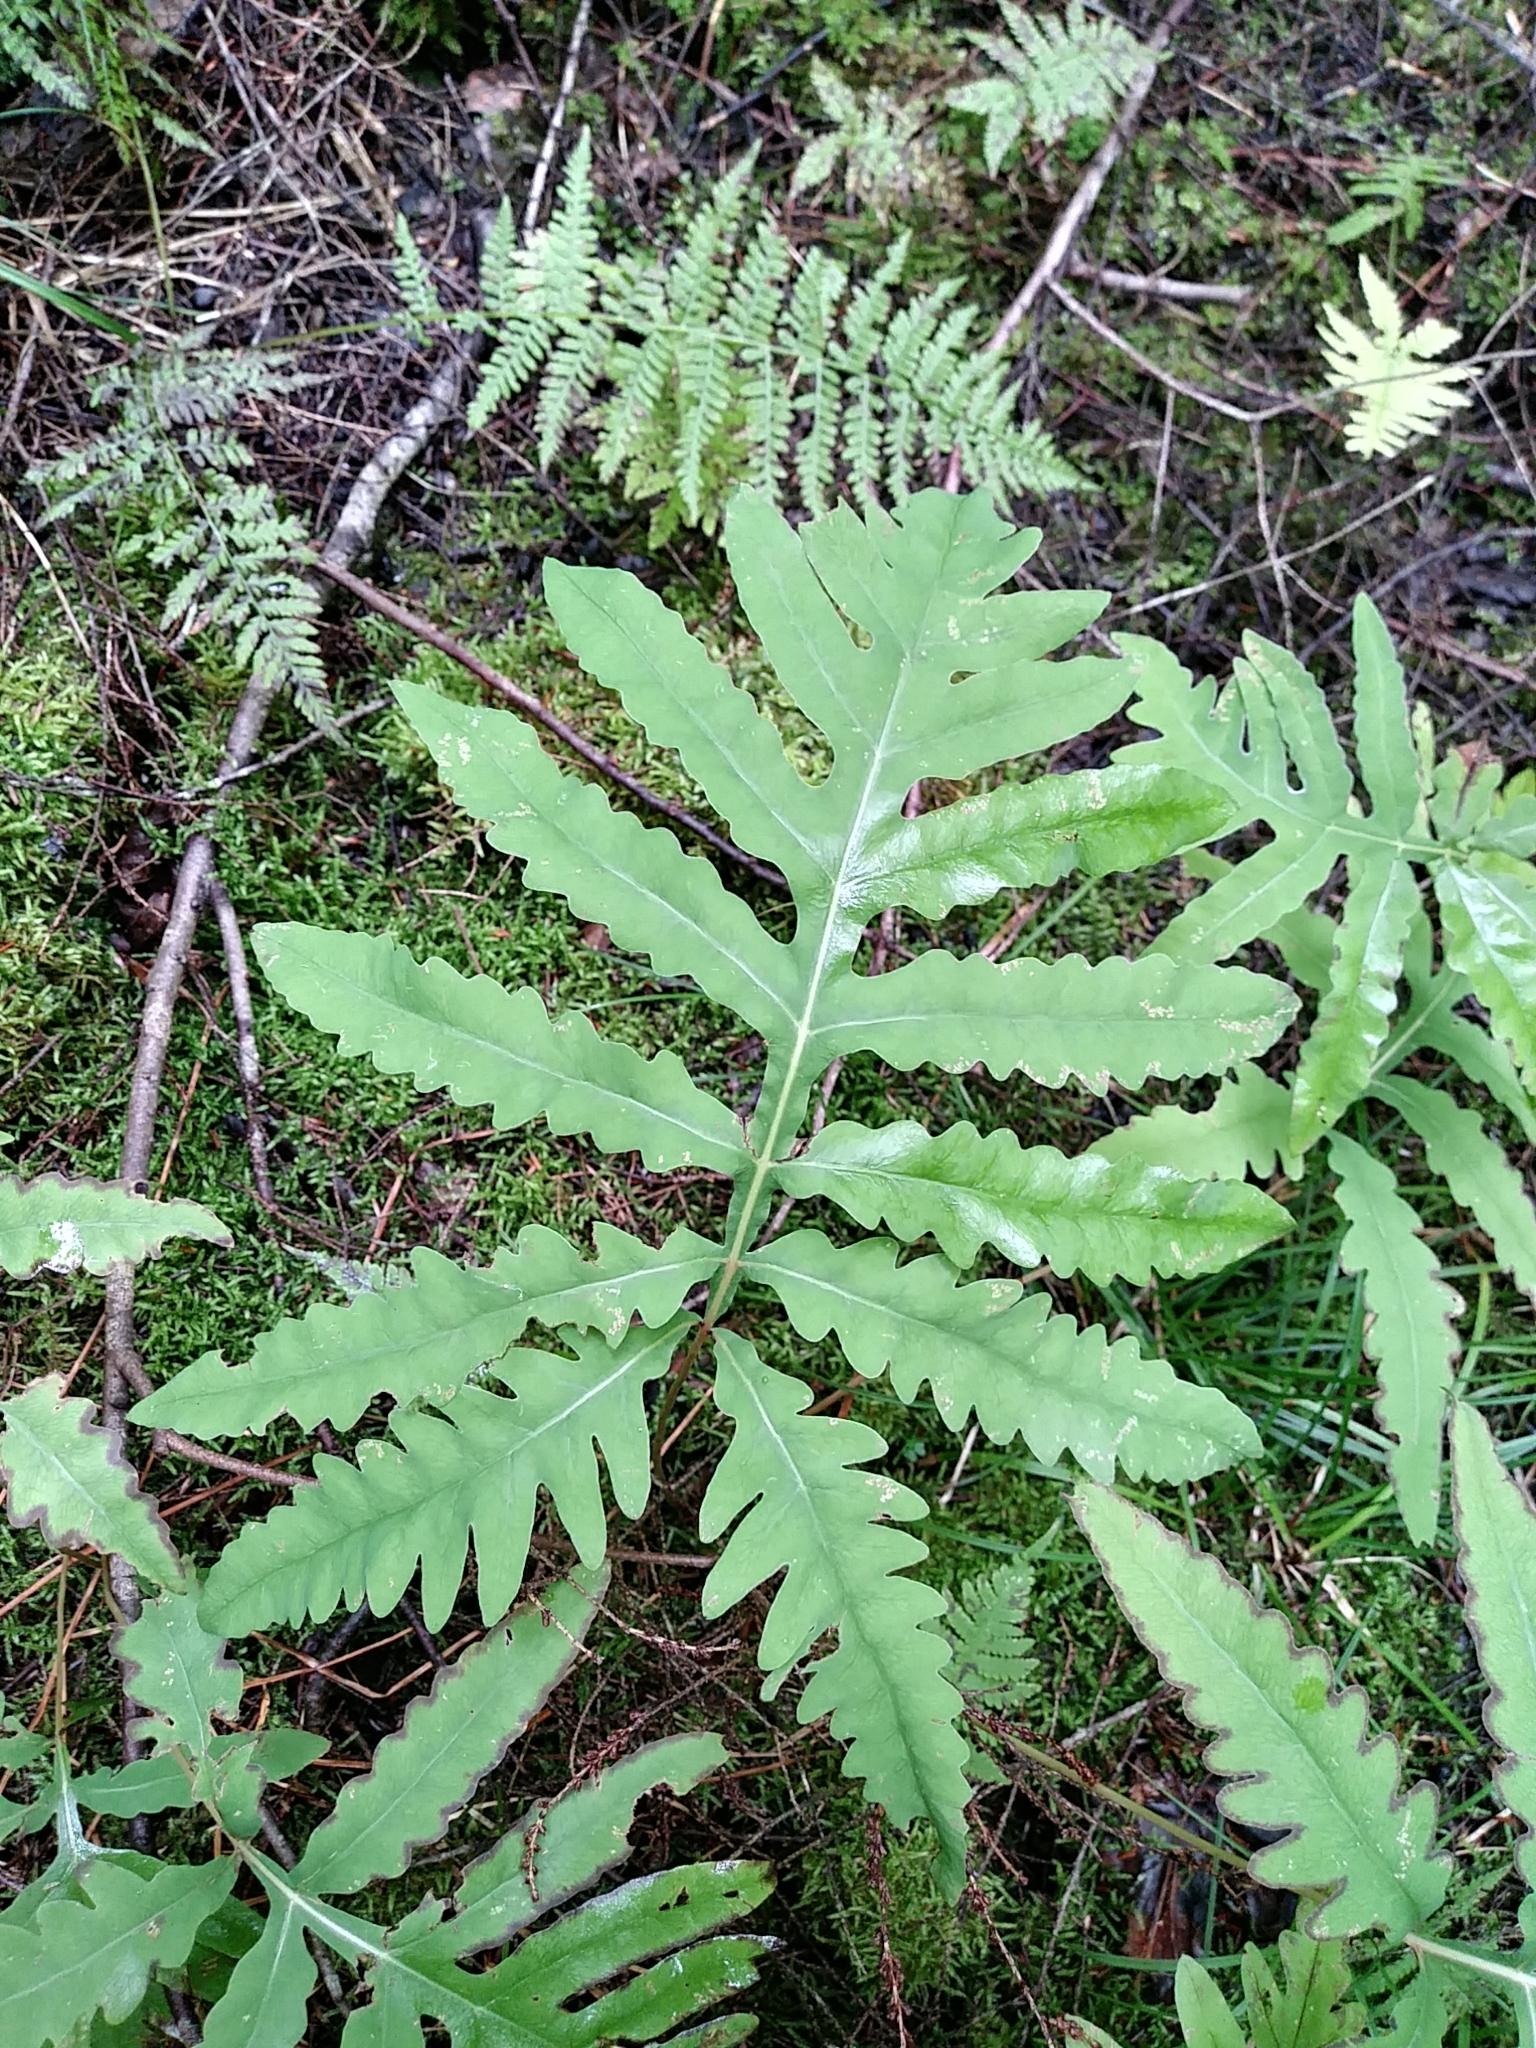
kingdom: Plantae
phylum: Tracheophyta
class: Polypodiopsida
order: Polypodiales
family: Onocleaceae
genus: Onoclea
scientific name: Onoclea sensibilis
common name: Sensitive fern
